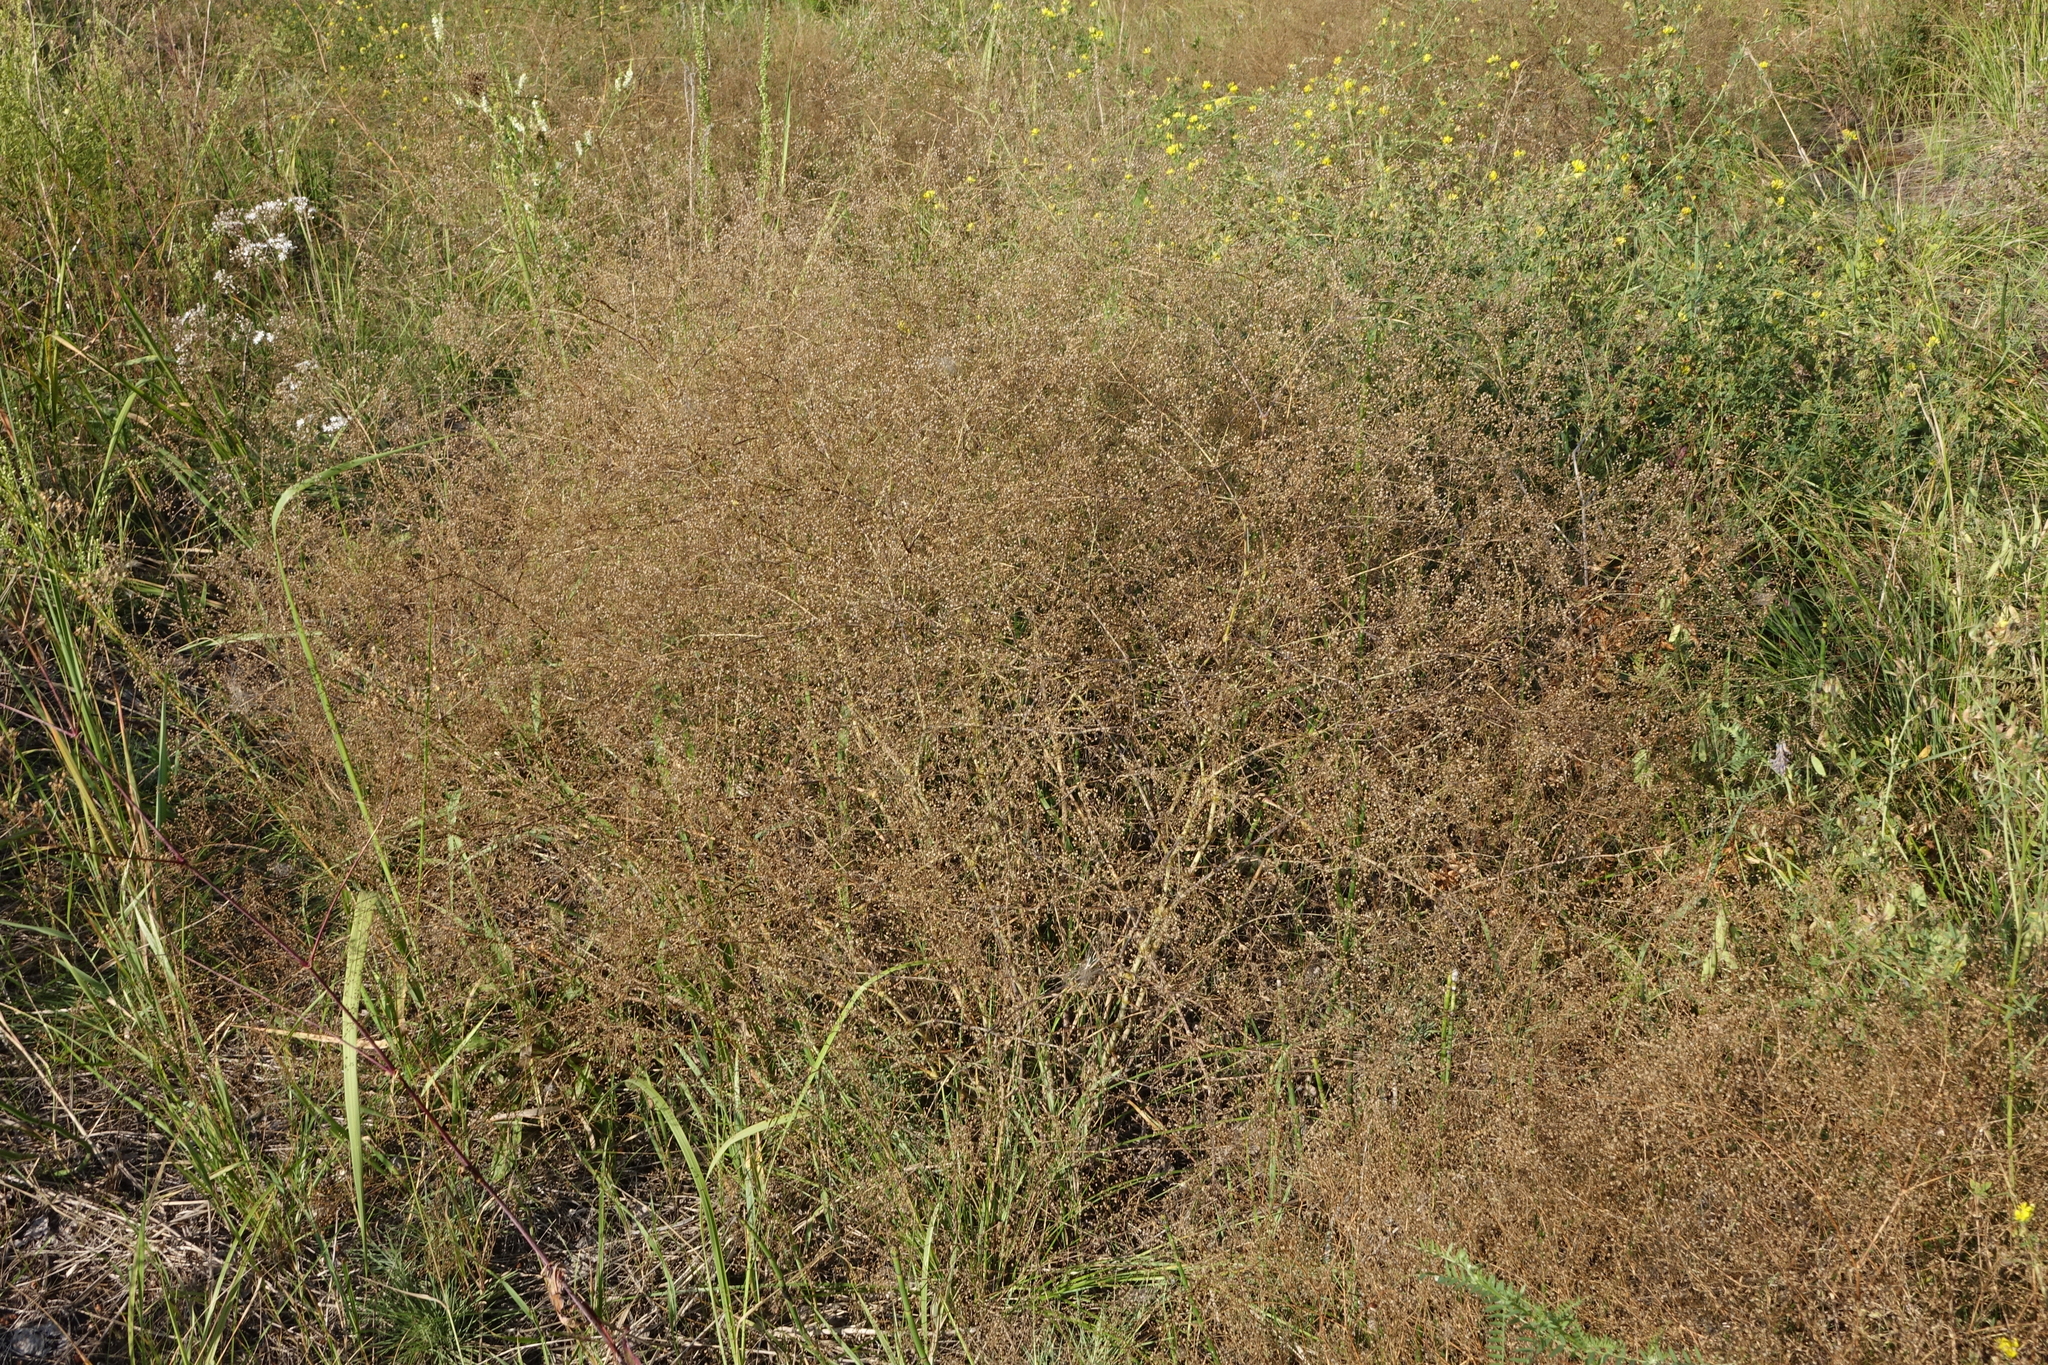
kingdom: Plantae
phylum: Tracheophyta
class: Magnoliopsida
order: Caryophyllales
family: Caryophyllaceae
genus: Gypsophila
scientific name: Gypsophila paniculata
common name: Baby's-breath
